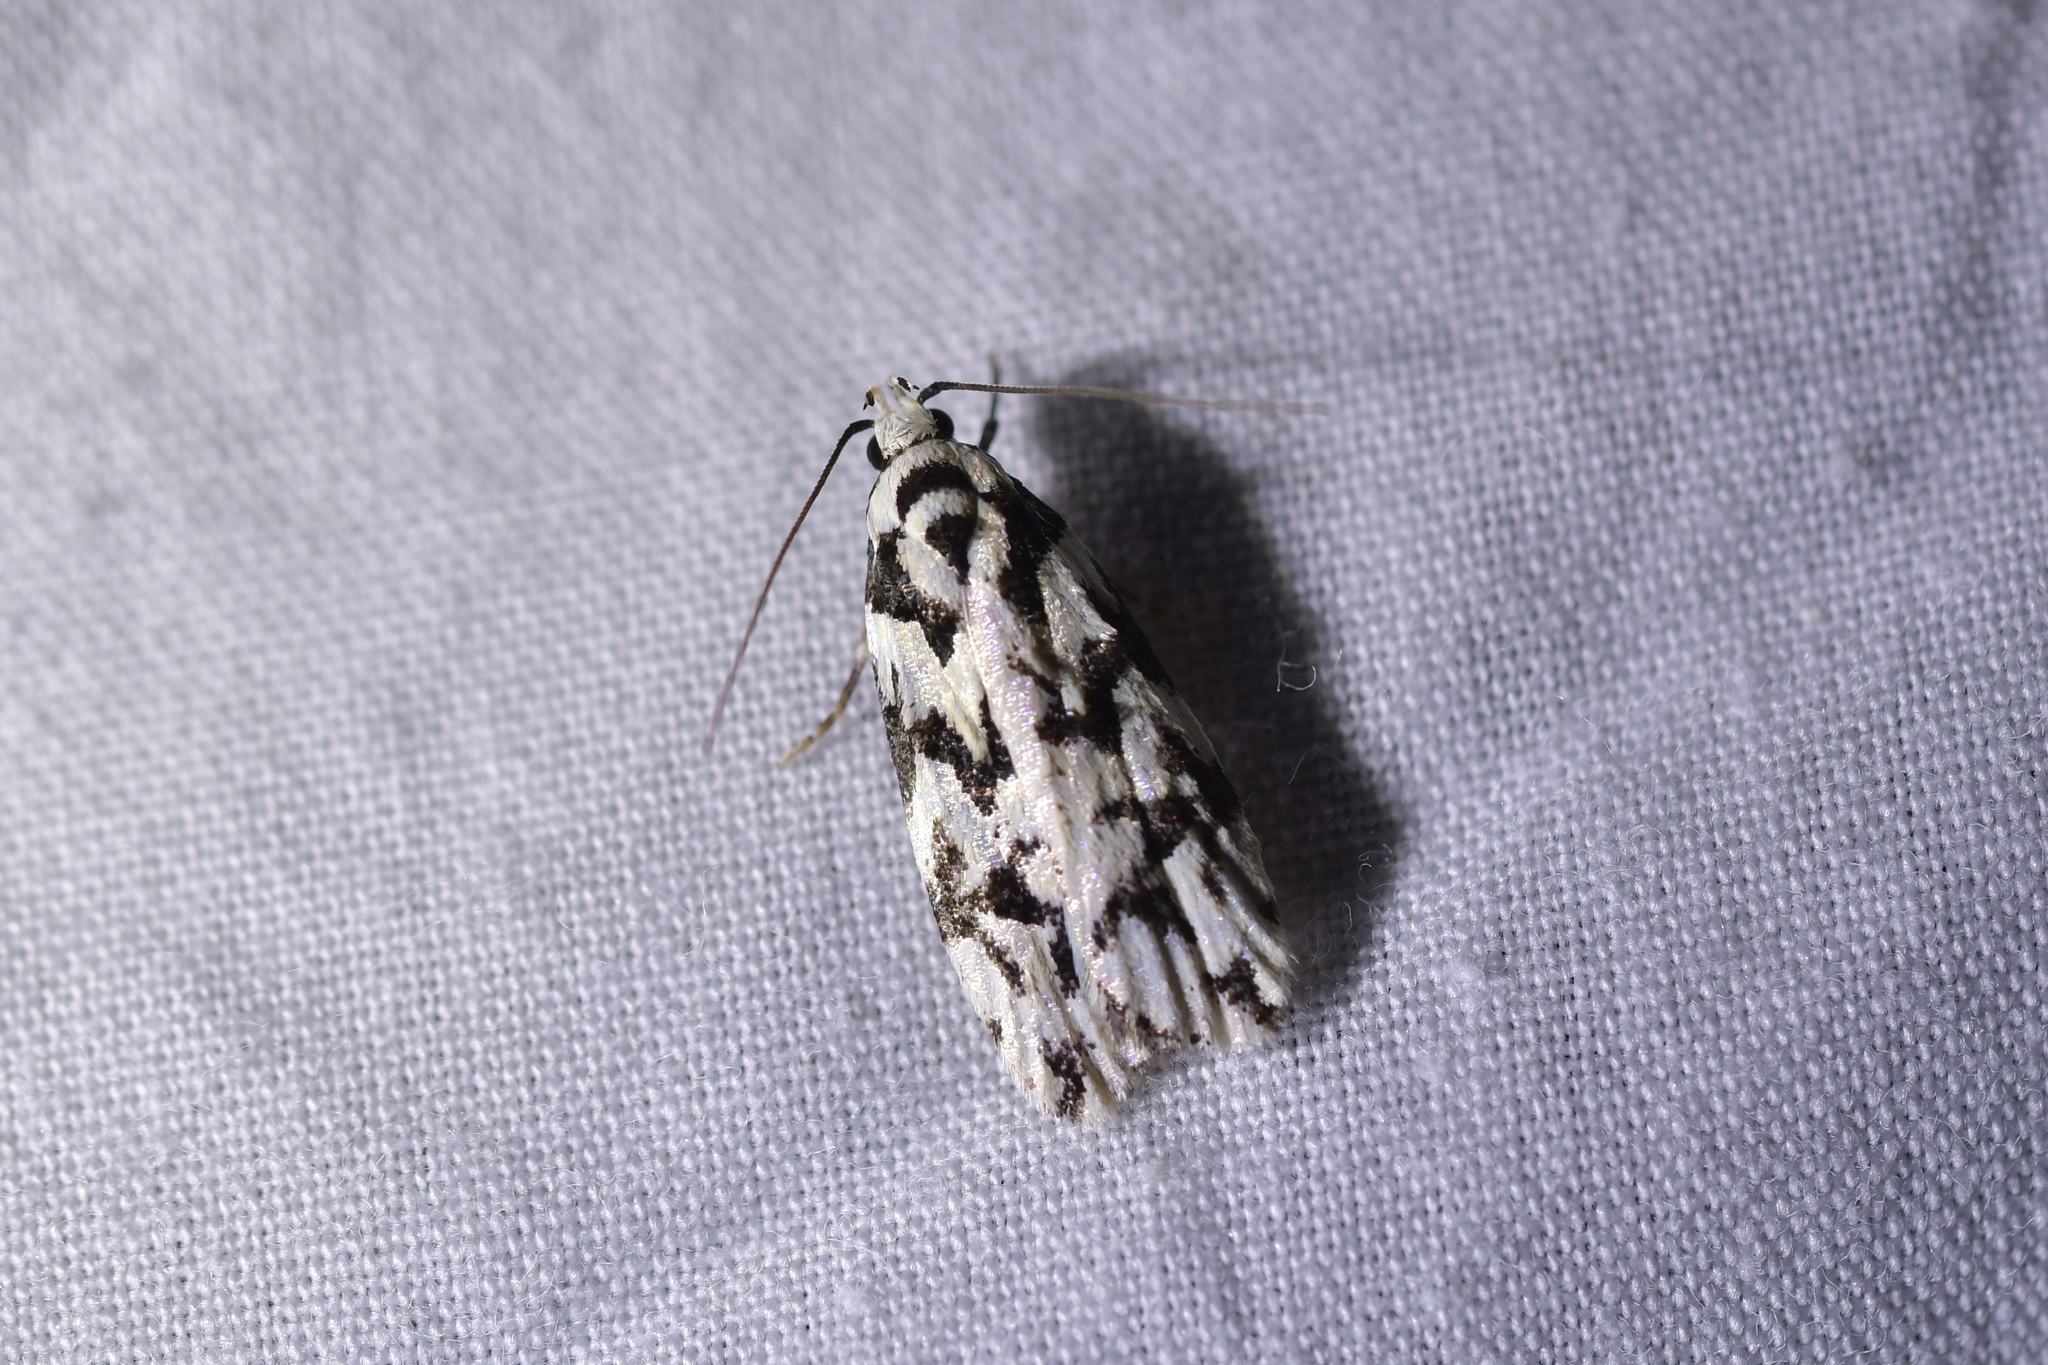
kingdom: Animalia
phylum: Arthropoda
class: Insecta
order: Lepidoptera
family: Oecophoridae
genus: Izatha
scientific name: Izatha
